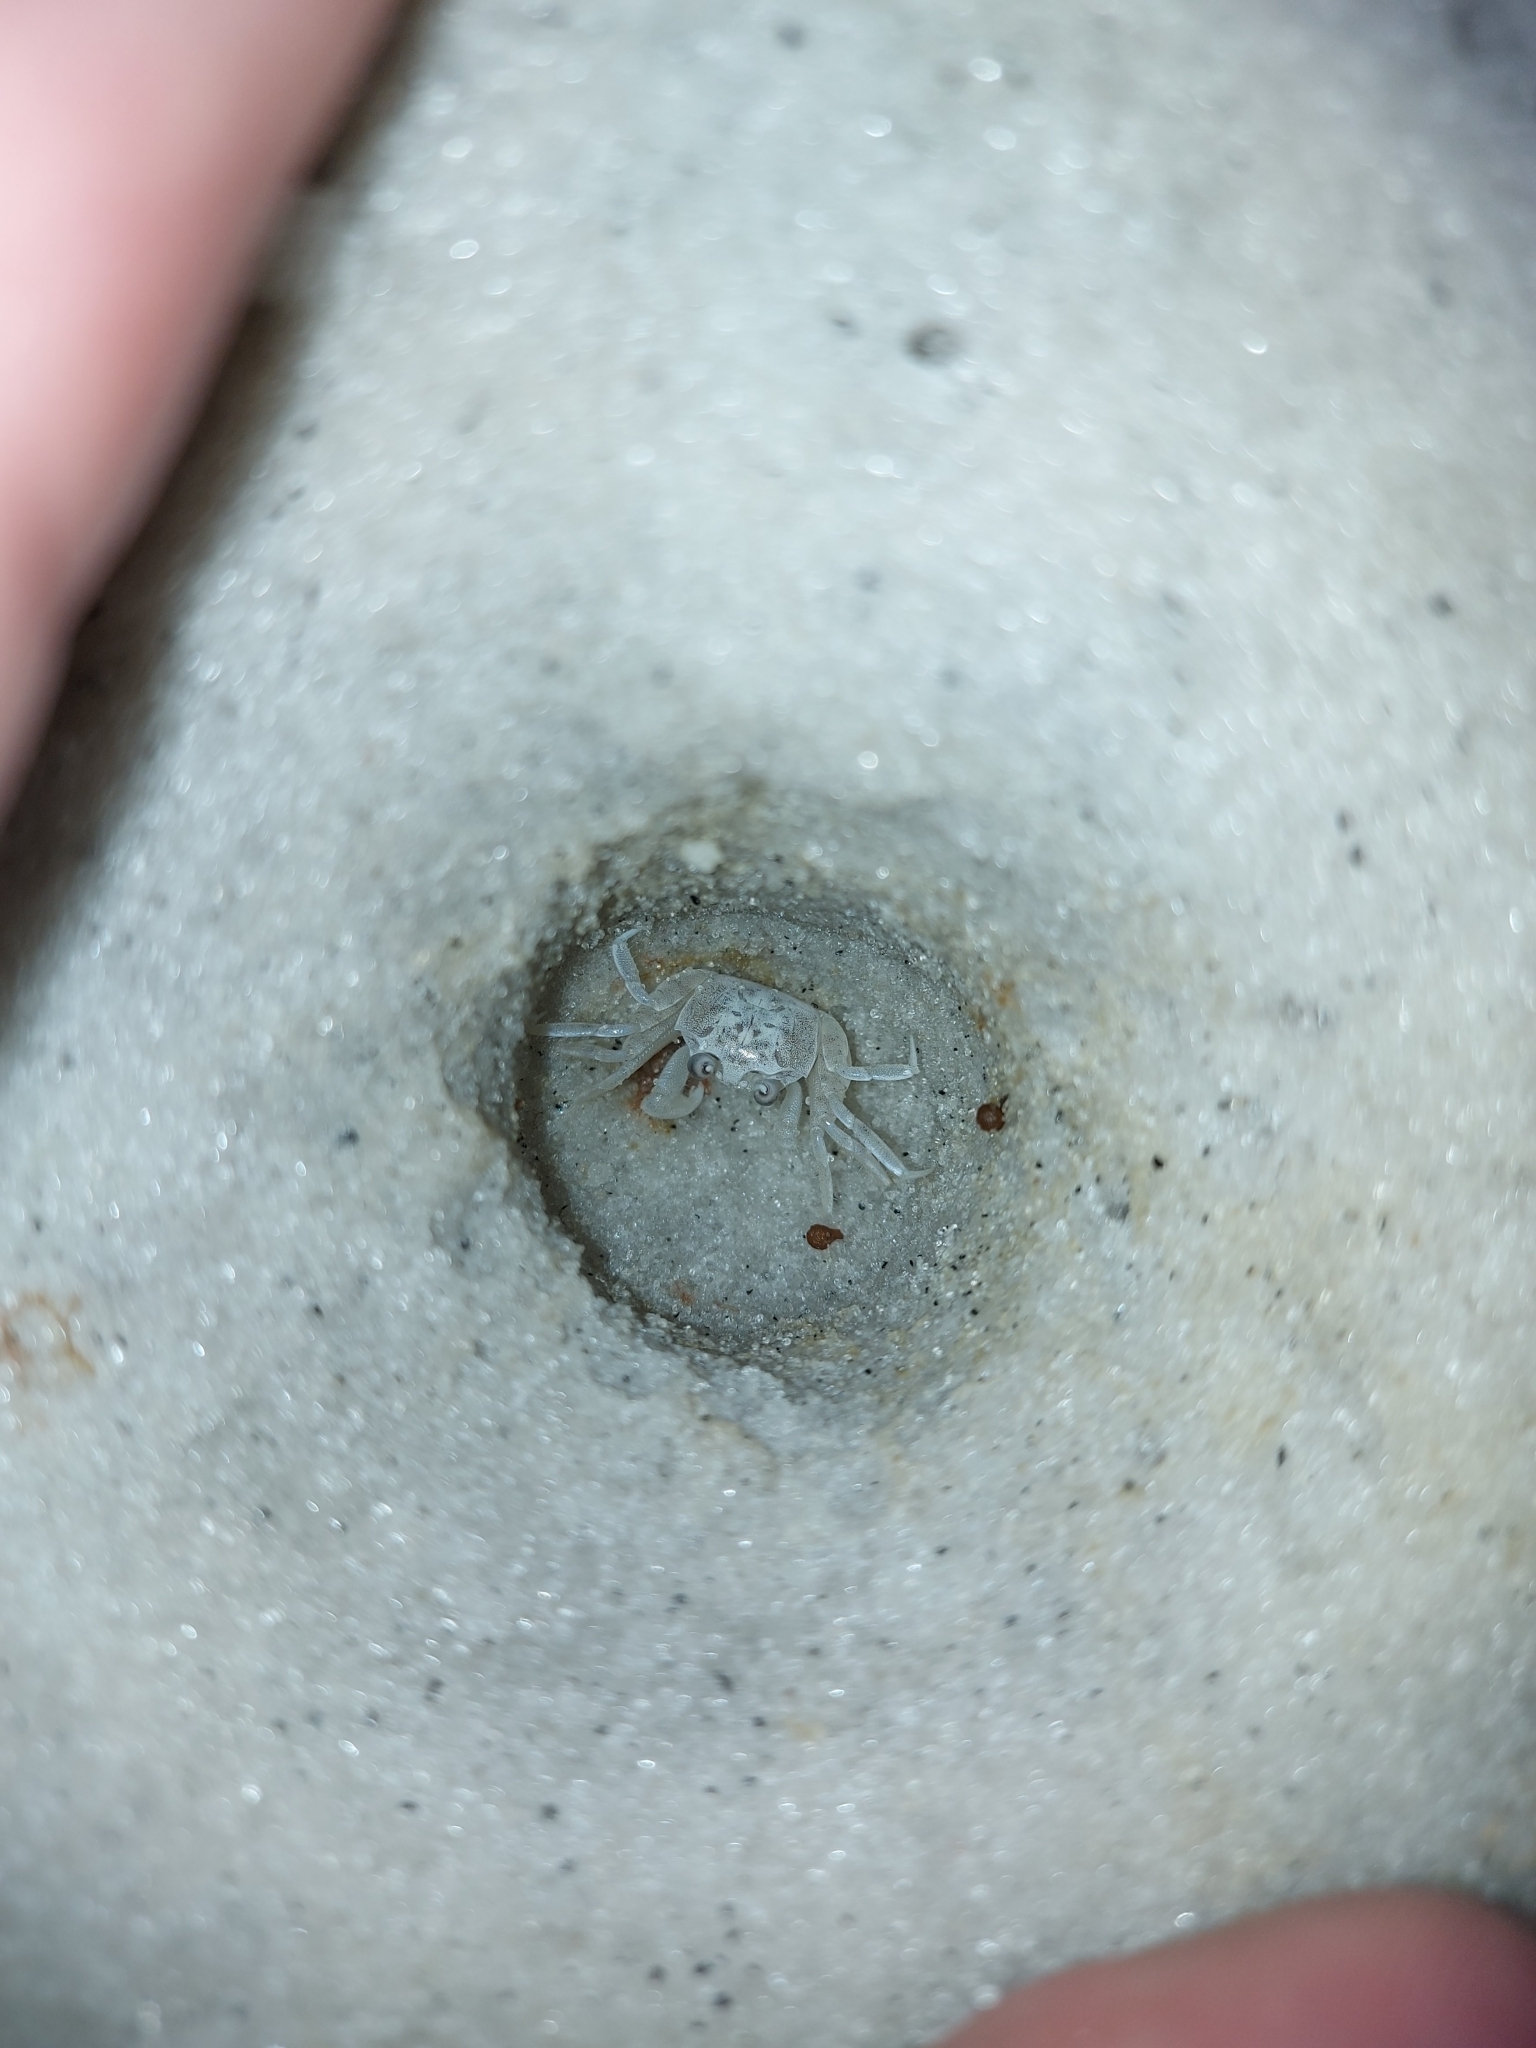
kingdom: Animalia
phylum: Arthropoda
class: Malacostraca
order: Decapoda
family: Ocypodidae
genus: Ocypode
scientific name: Ocypode quadrata
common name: Ghost crab
